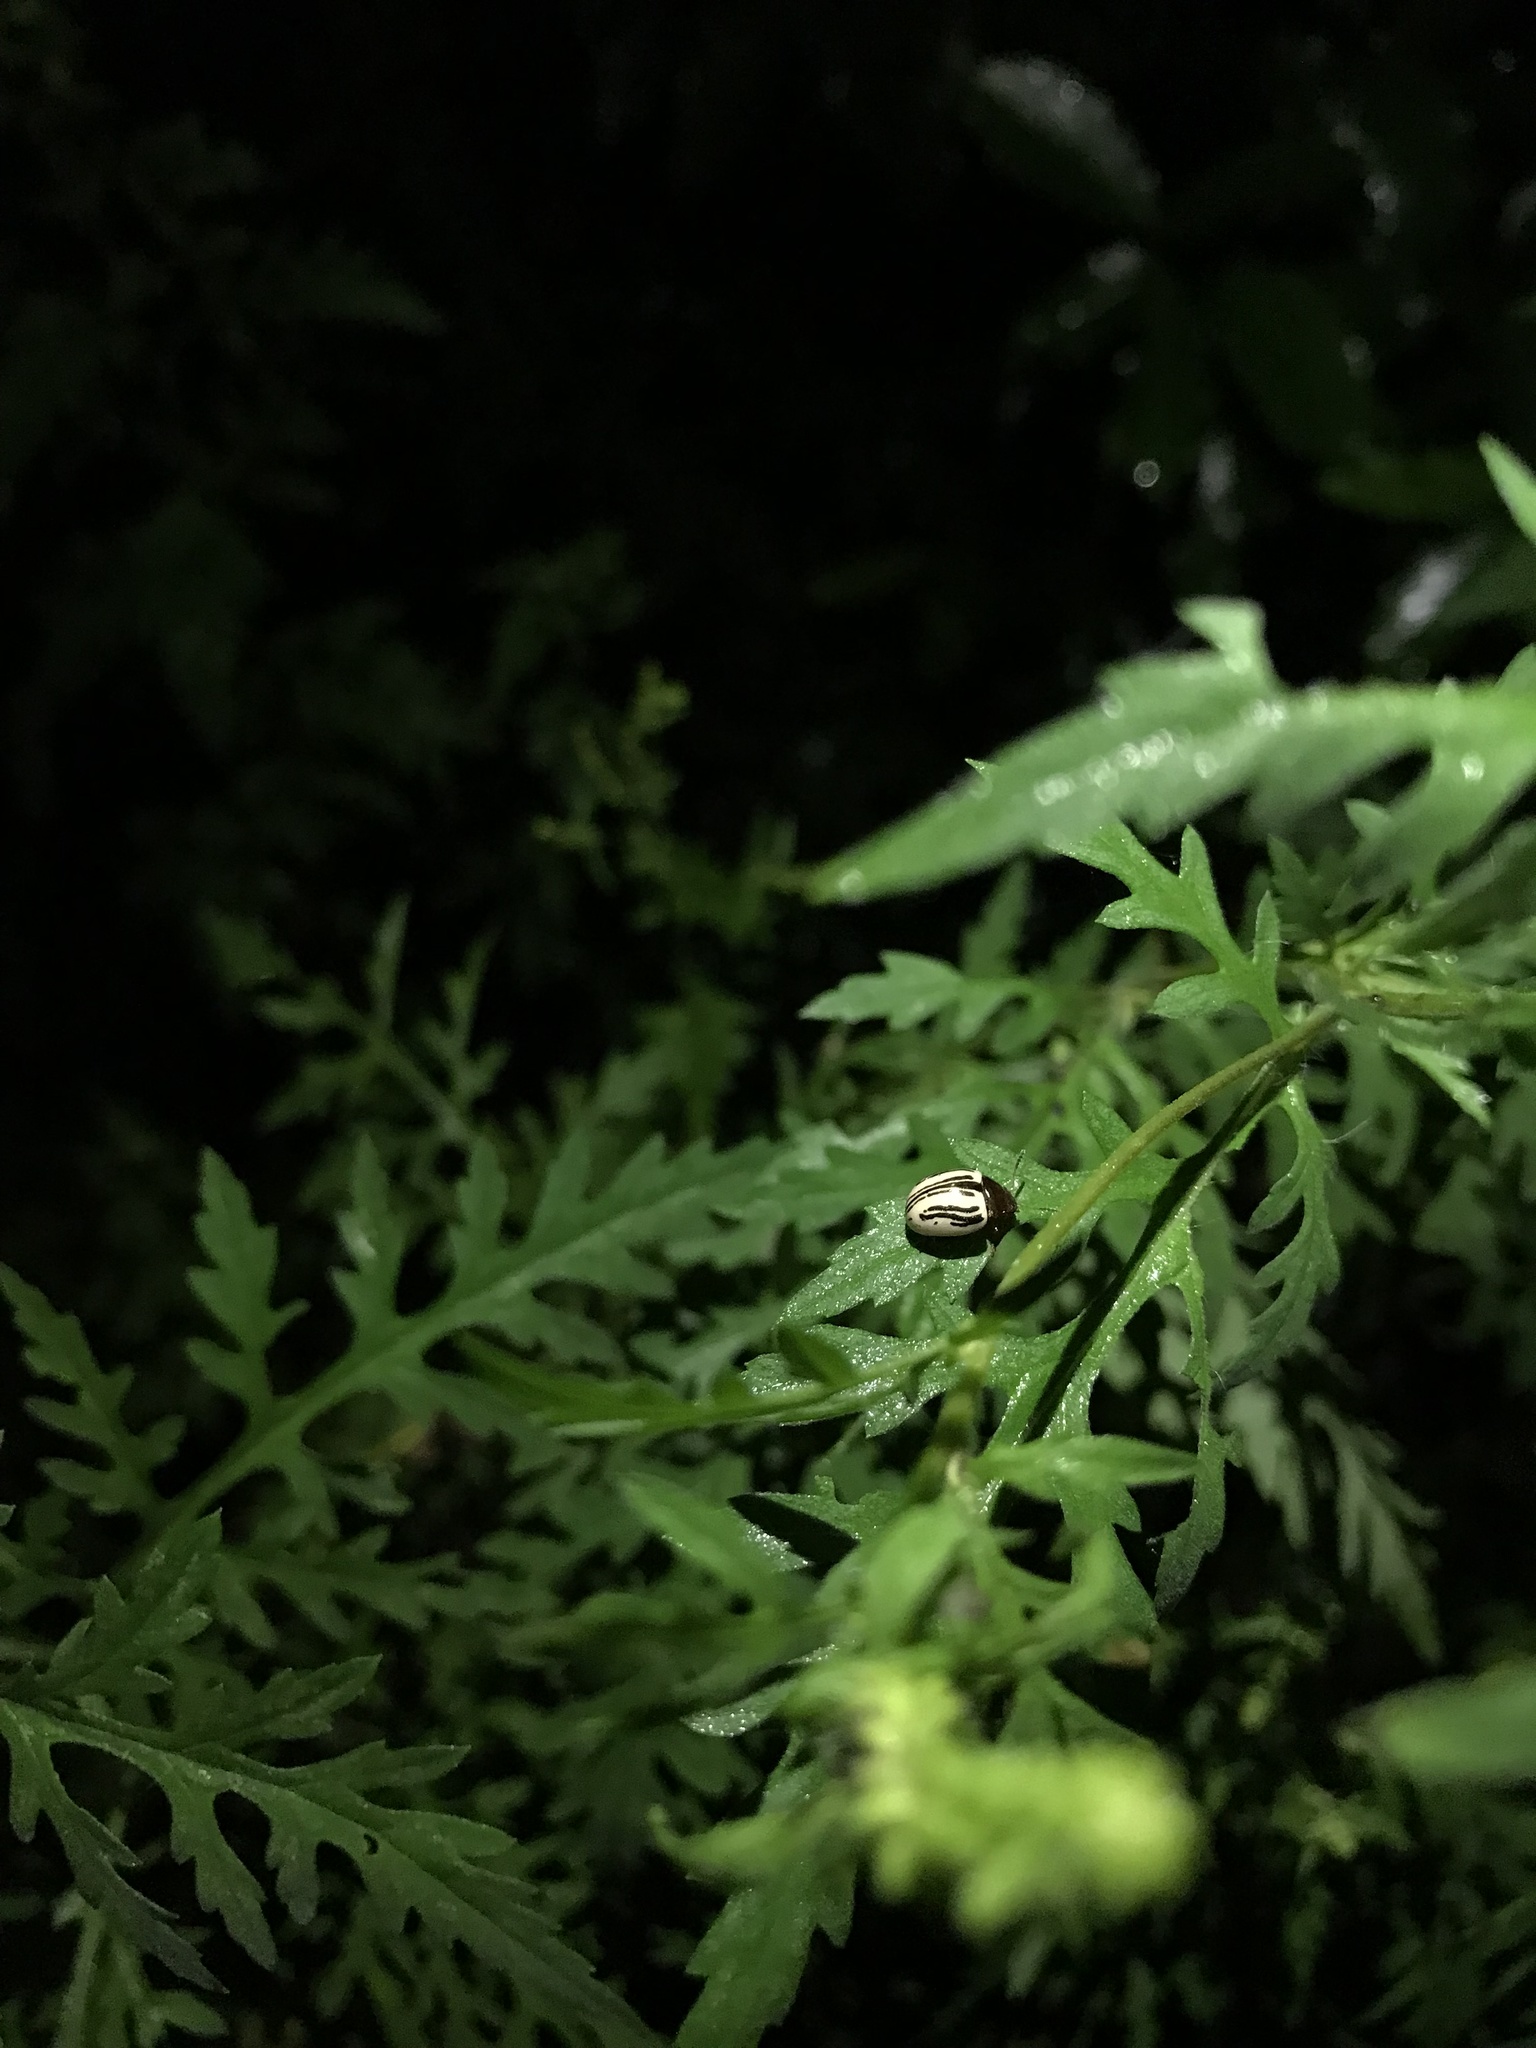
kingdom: Animalia
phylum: Arthropoda
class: Insecta
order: Coleoptera
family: Chrysomelidae
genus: Calligrapha
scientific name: Calligrapha
